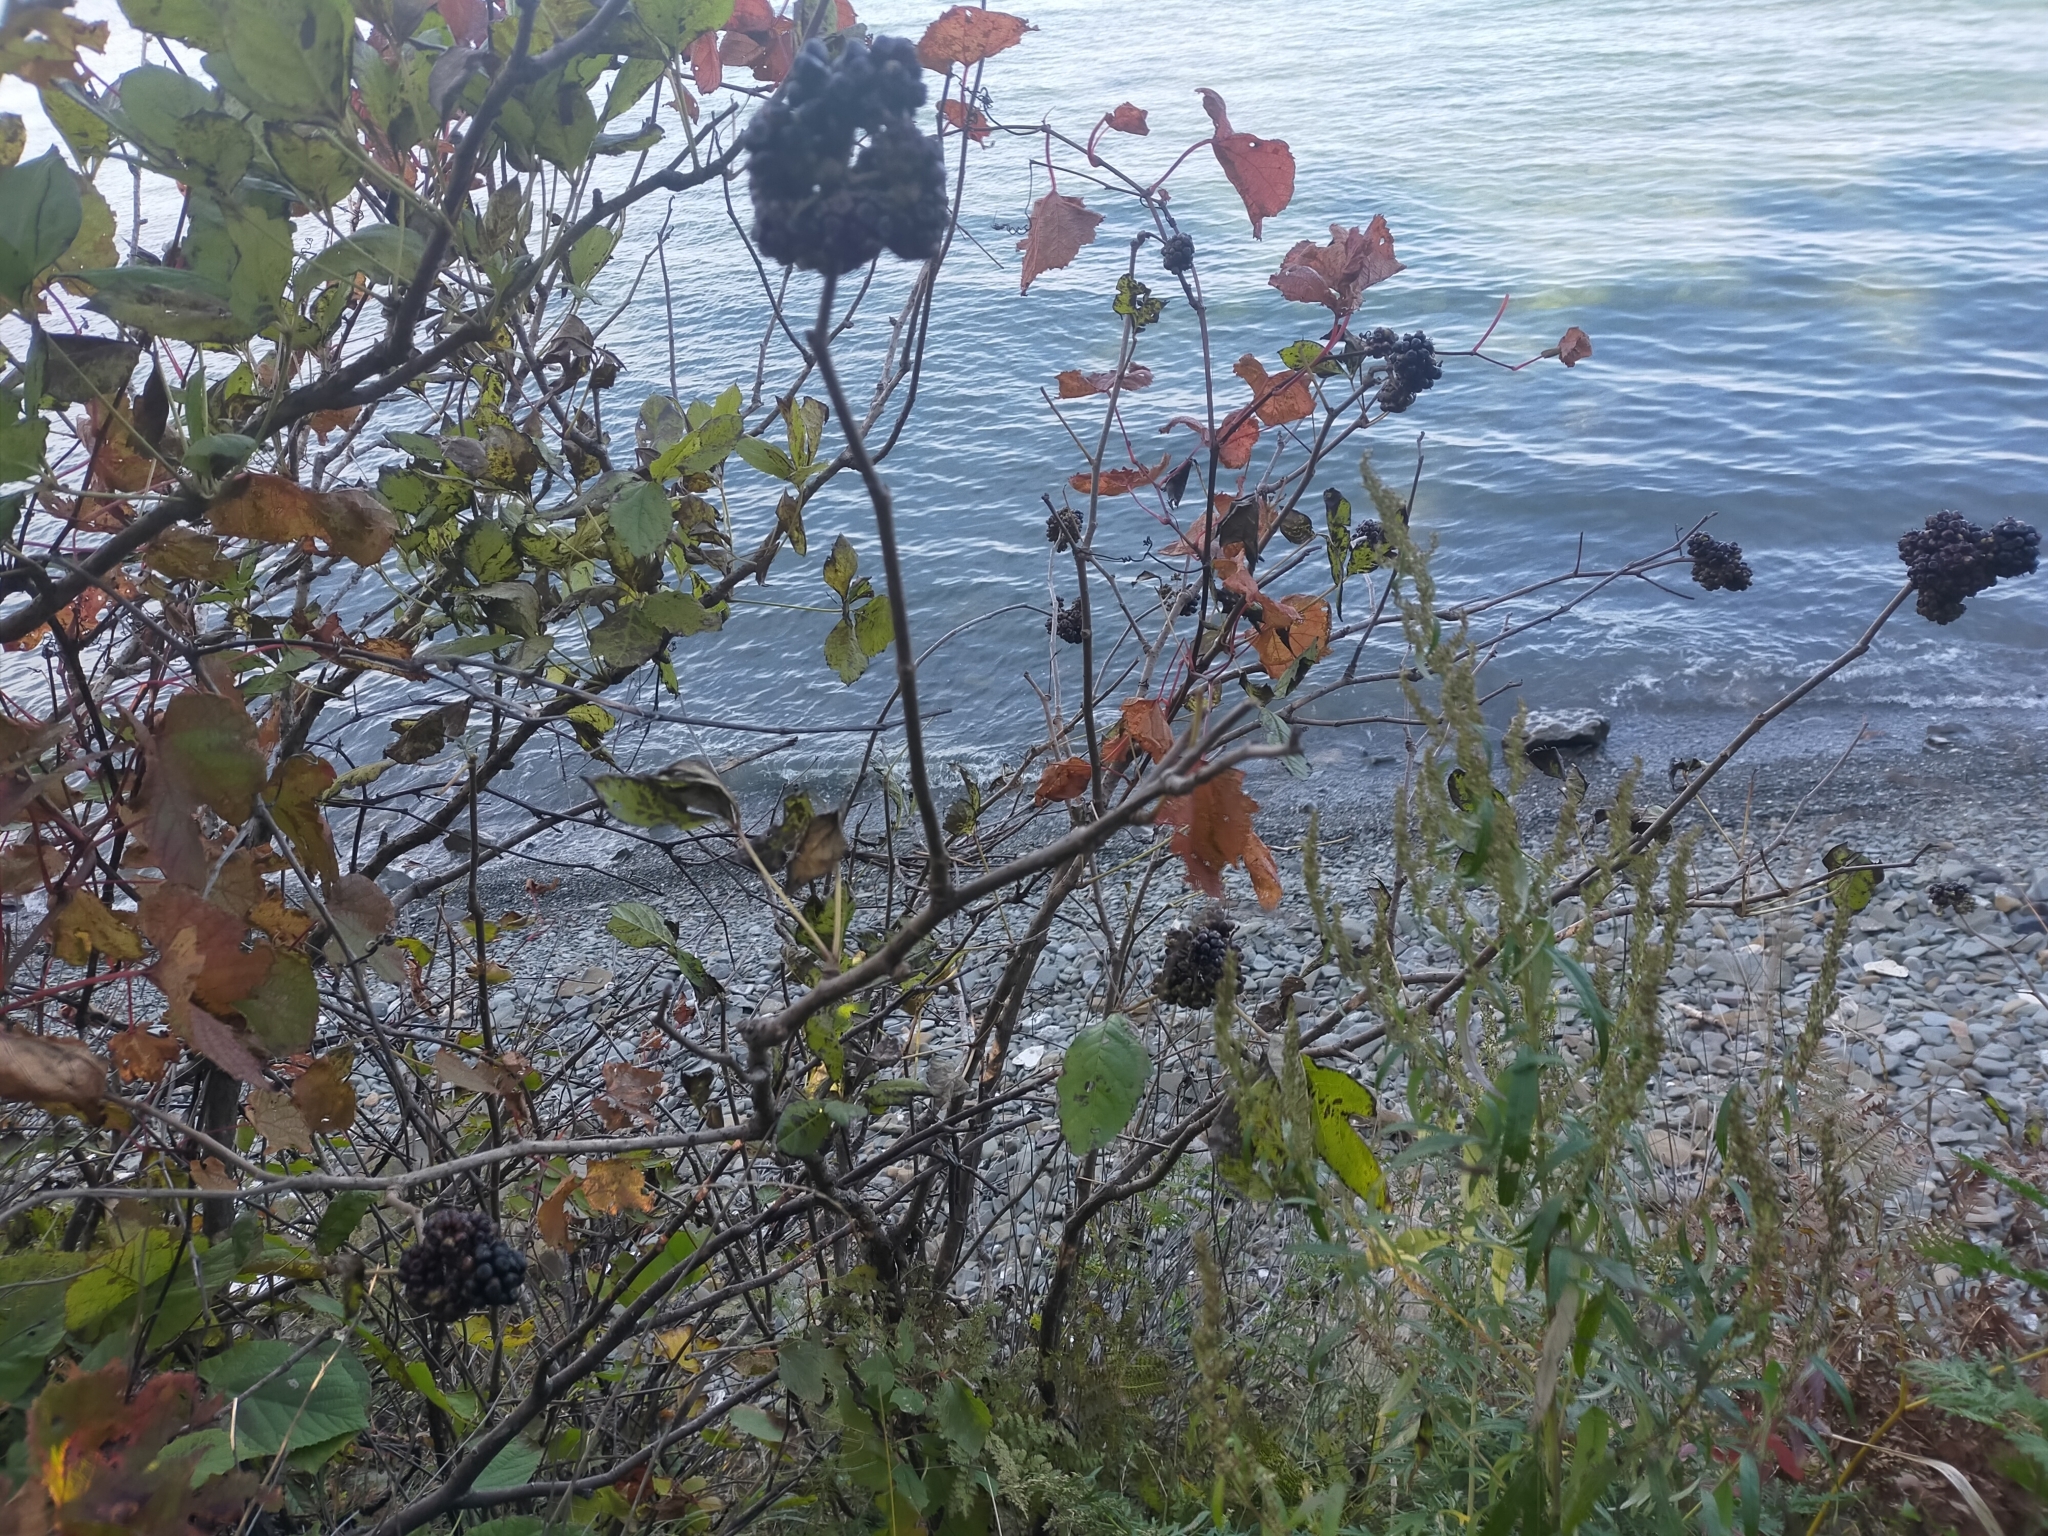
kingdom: Plantae
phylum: Tracheophyta
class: Magnoliopsida
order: Apiales
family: Araliaceae
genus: Eleutherococcus
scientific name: Eleutherococcus sessiliflorus
